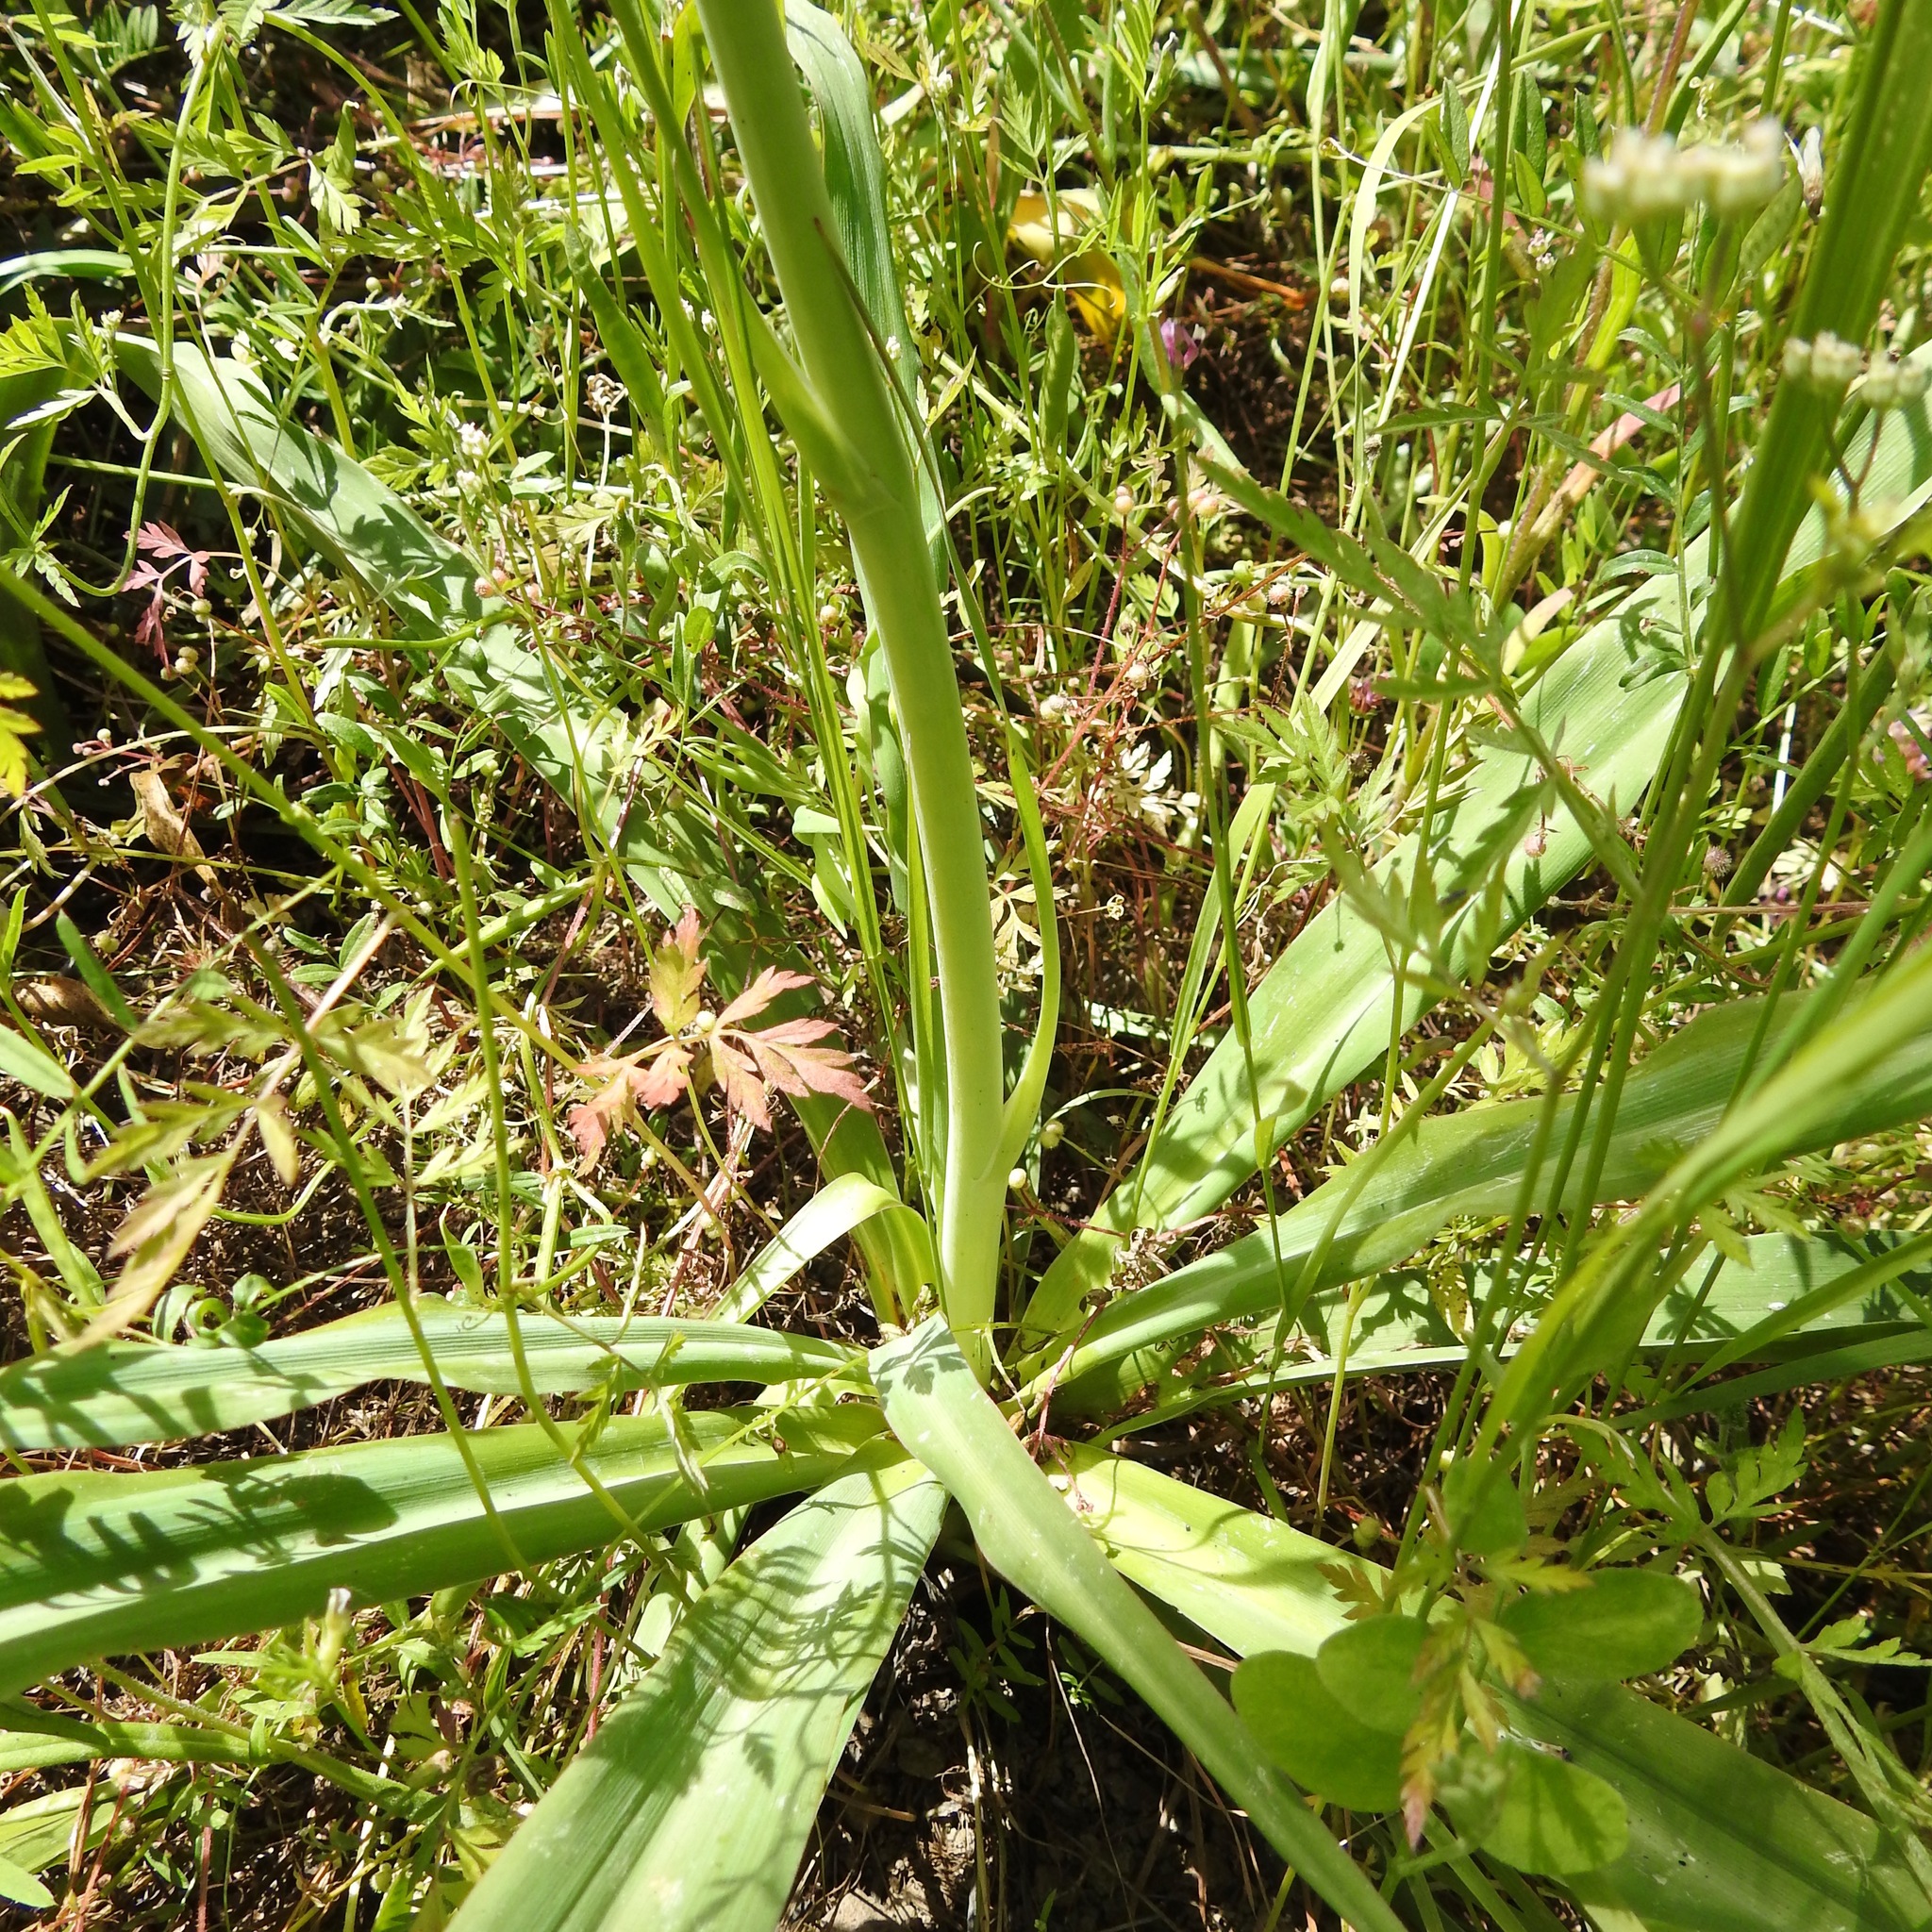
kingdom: Plantae
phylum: Tracheophyta
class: Liliopsida
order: Asparagales
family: Asparagaceae
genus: Chlorogalum
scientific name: Chlorogalum pomeridianum
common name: Amole
